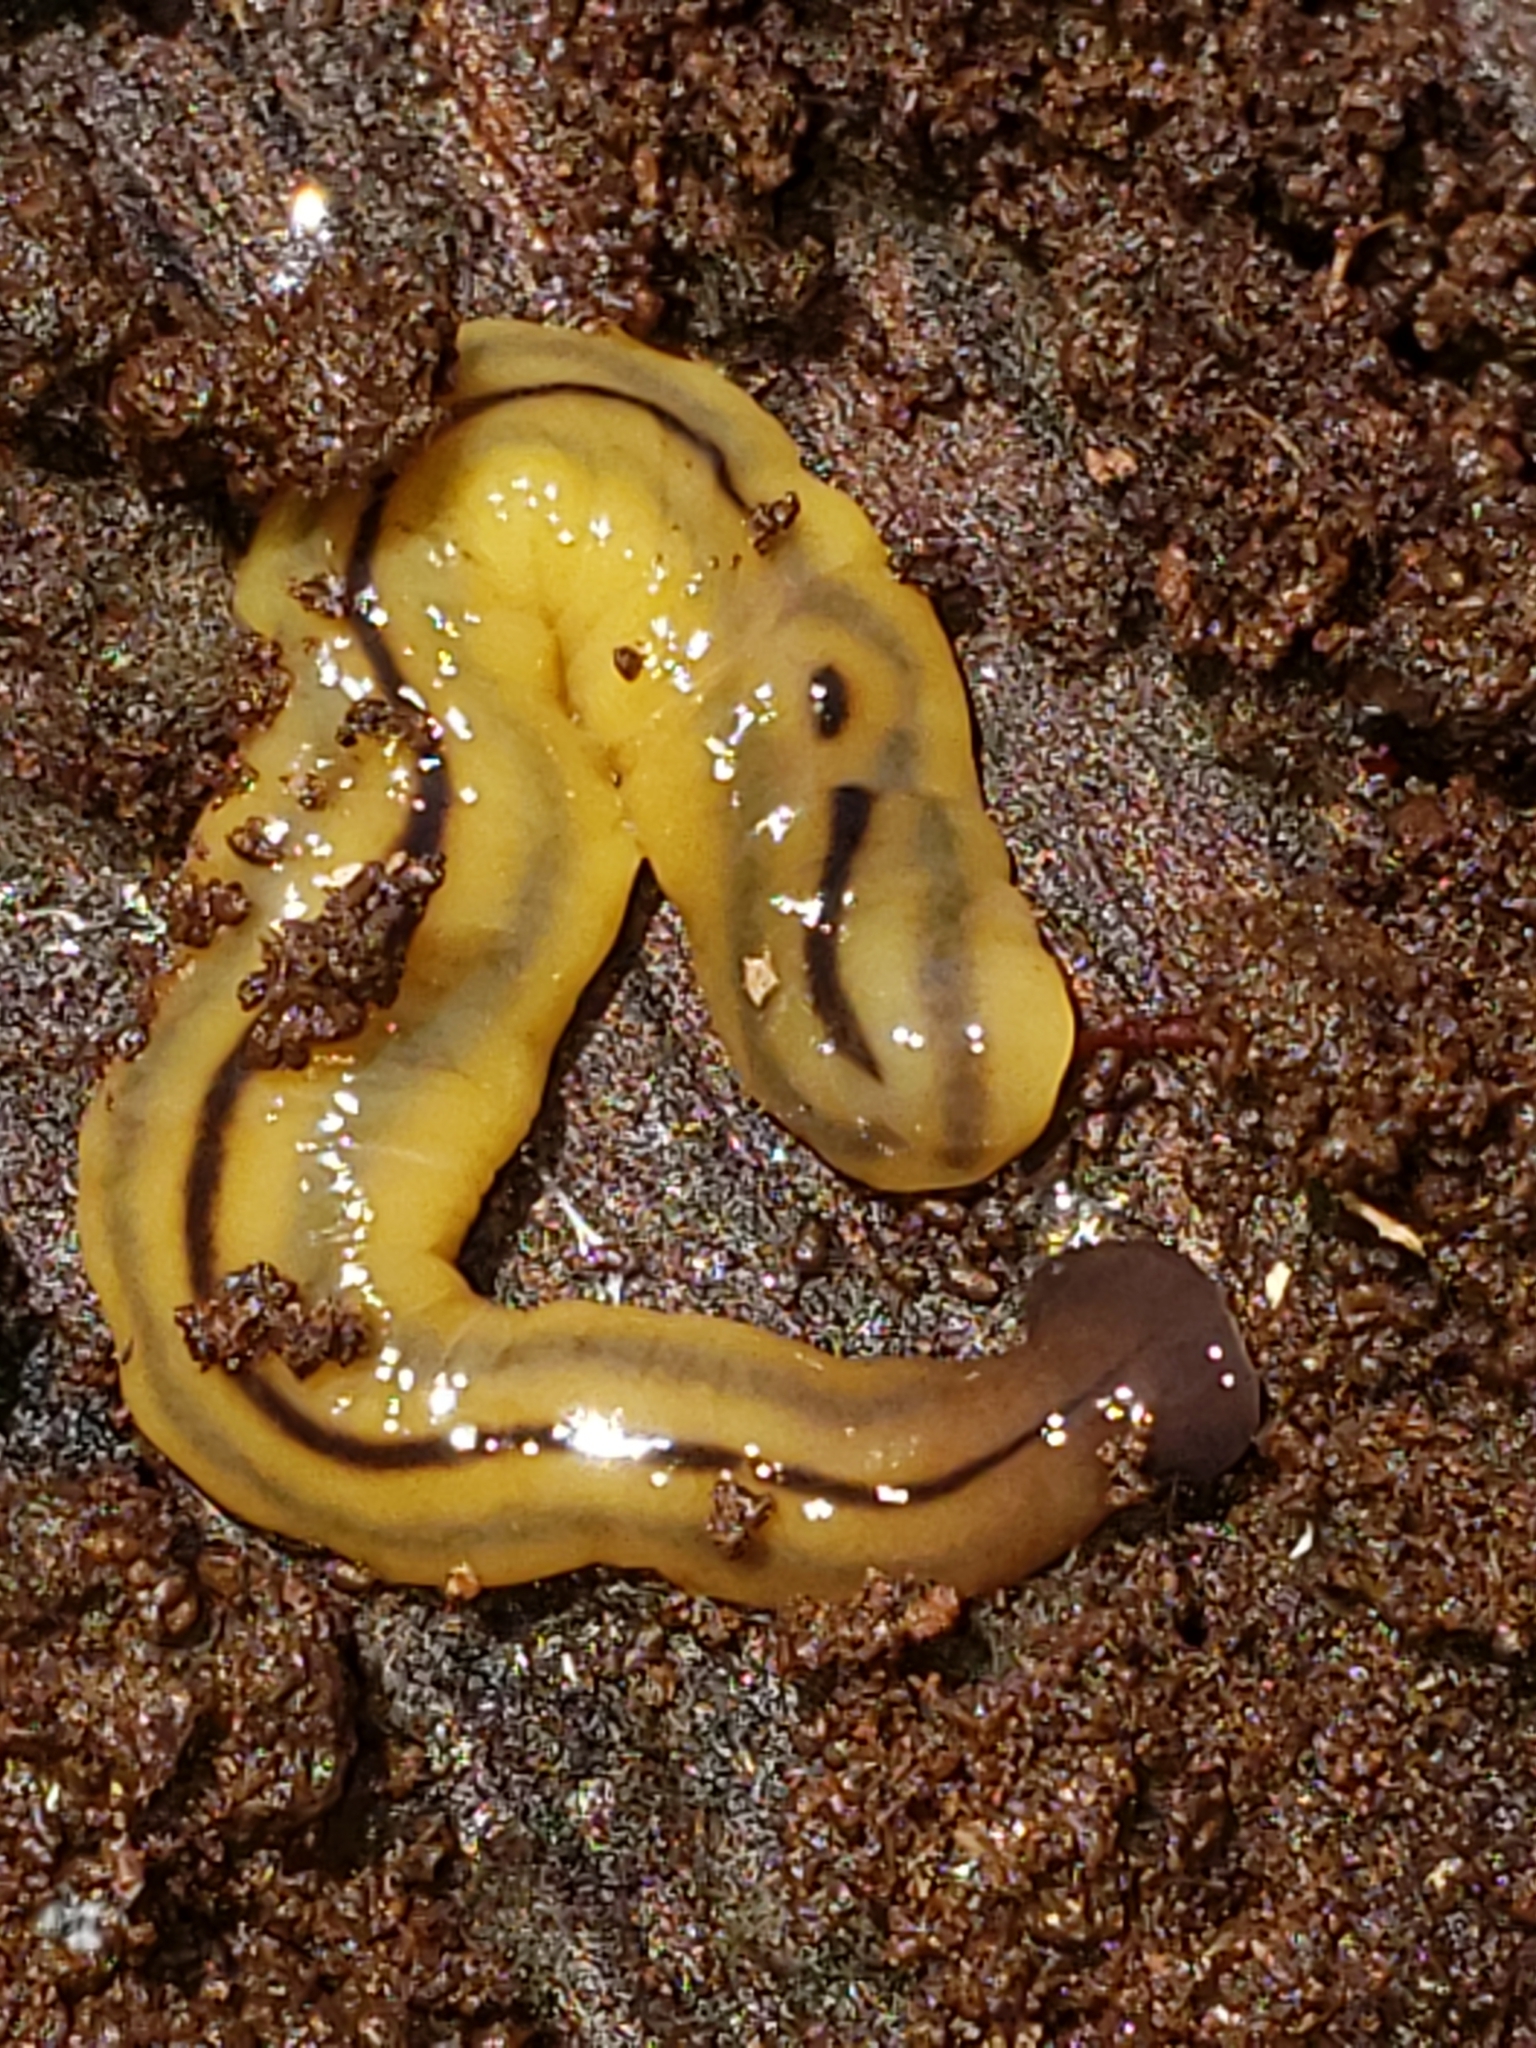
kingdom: Animalia
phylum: Platyhelminthes
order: Tricladida
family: Geoplanidae
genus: Bipalium
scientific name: Bipalium pennsylvanicum
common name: Three-lined land planarian
